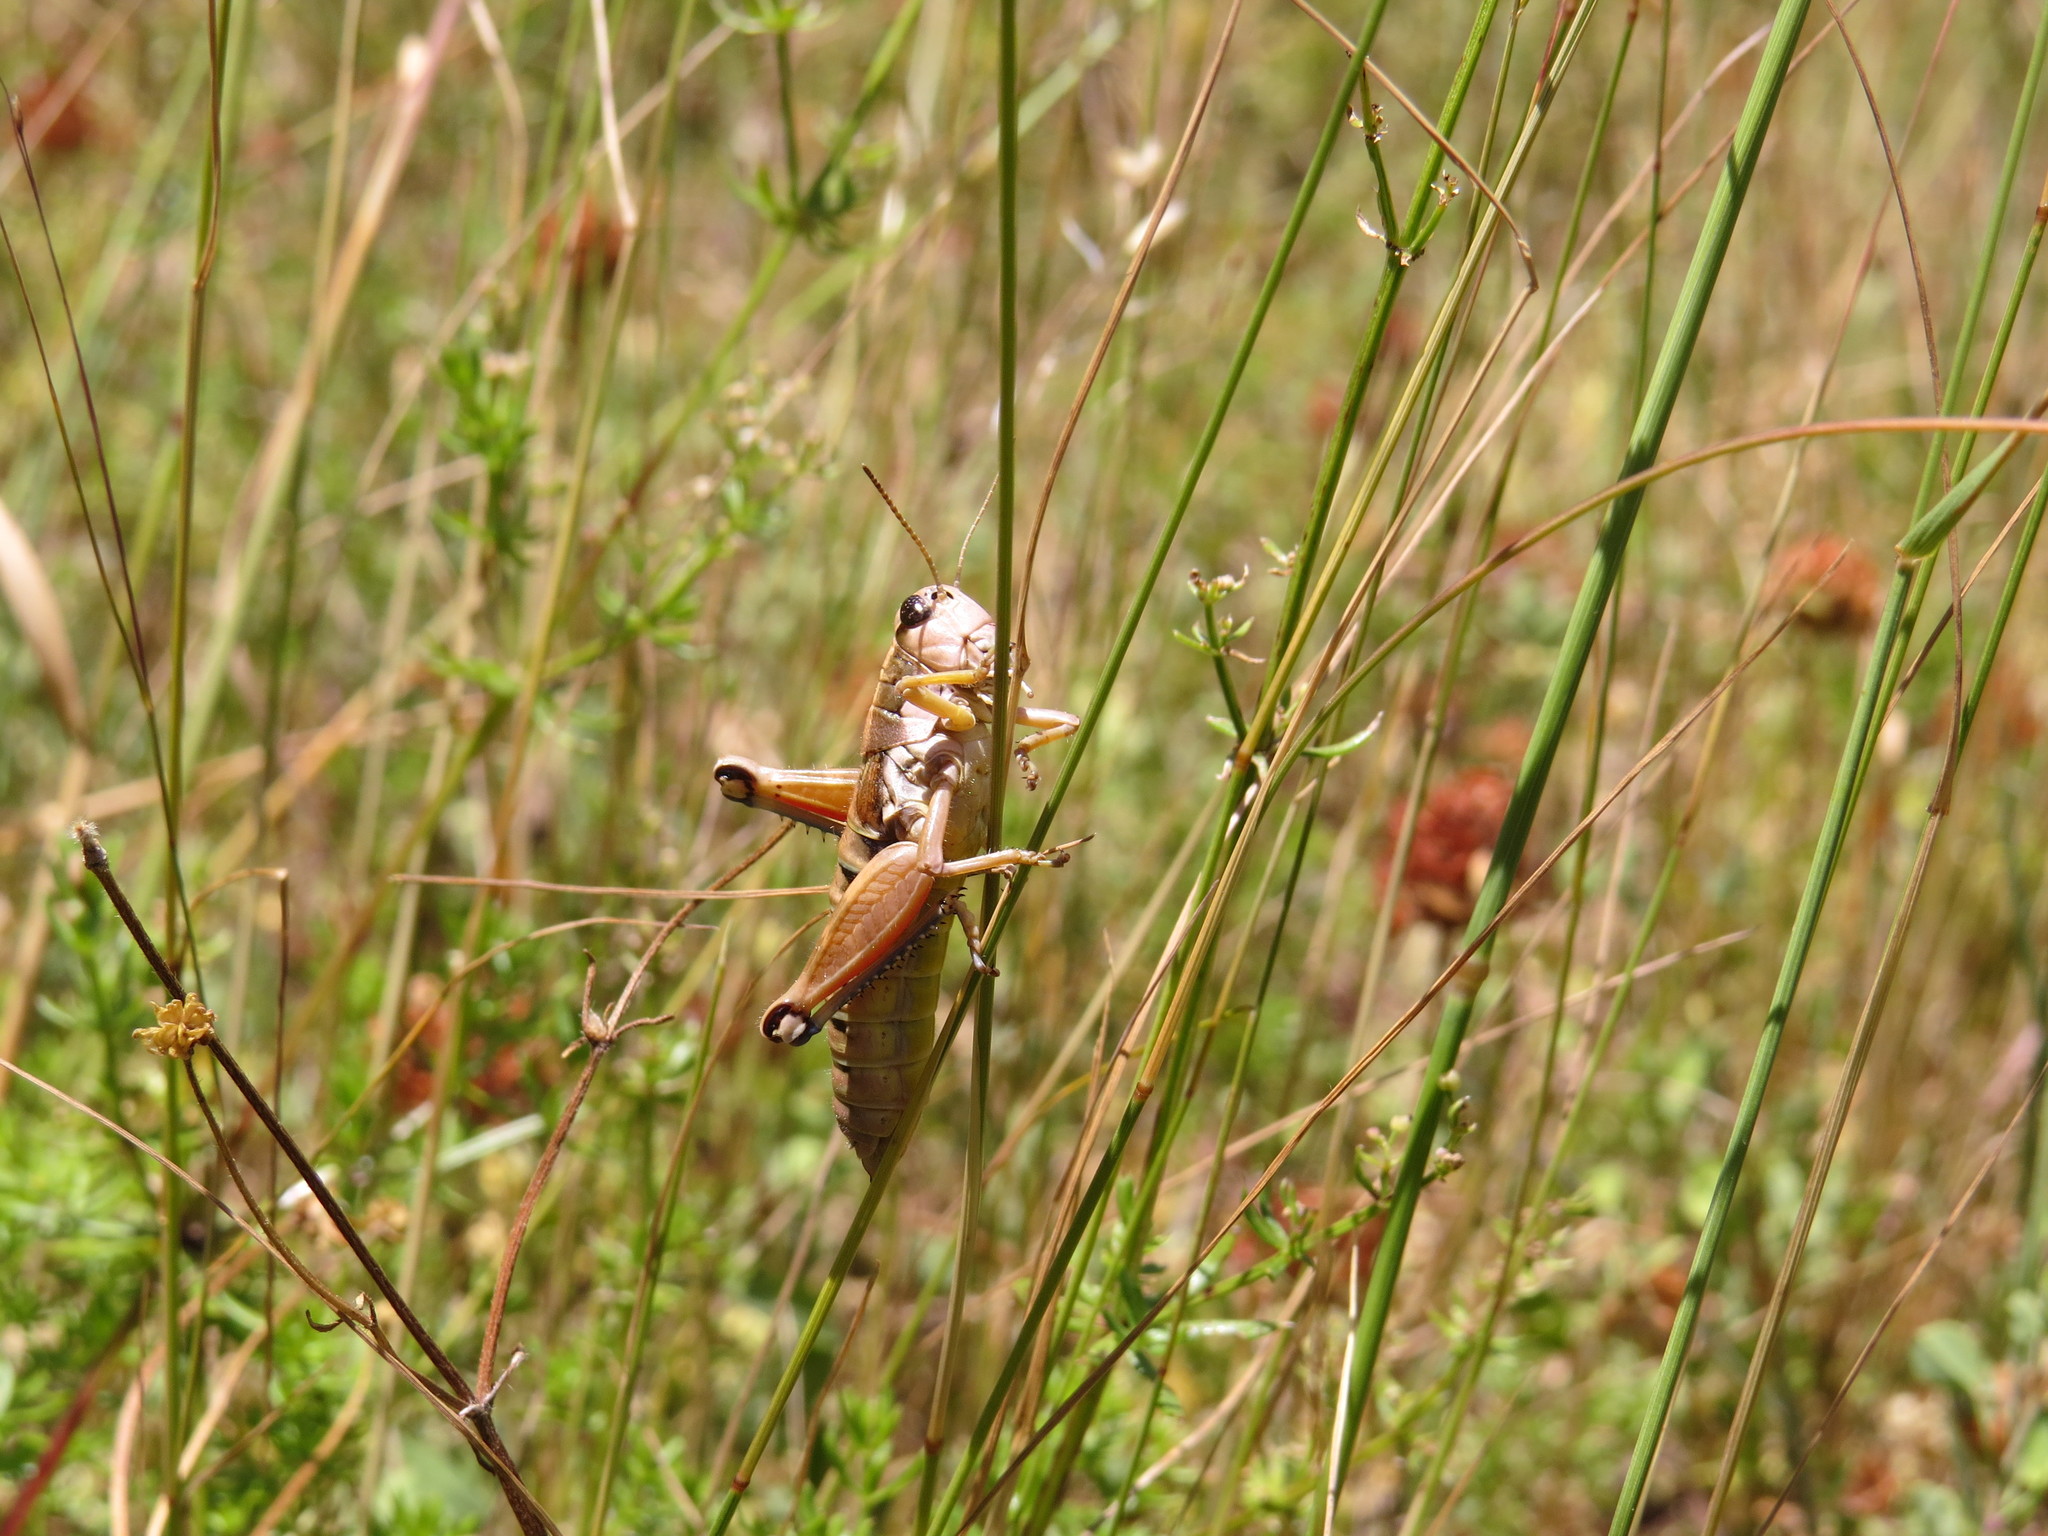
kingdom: Animalia
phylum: Arthropoda
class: Insecta
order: Orthoptera
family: Acrididae
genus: Podisma
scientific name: Podisma amedegnatoae
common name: Ventoux mountain grasshopper
